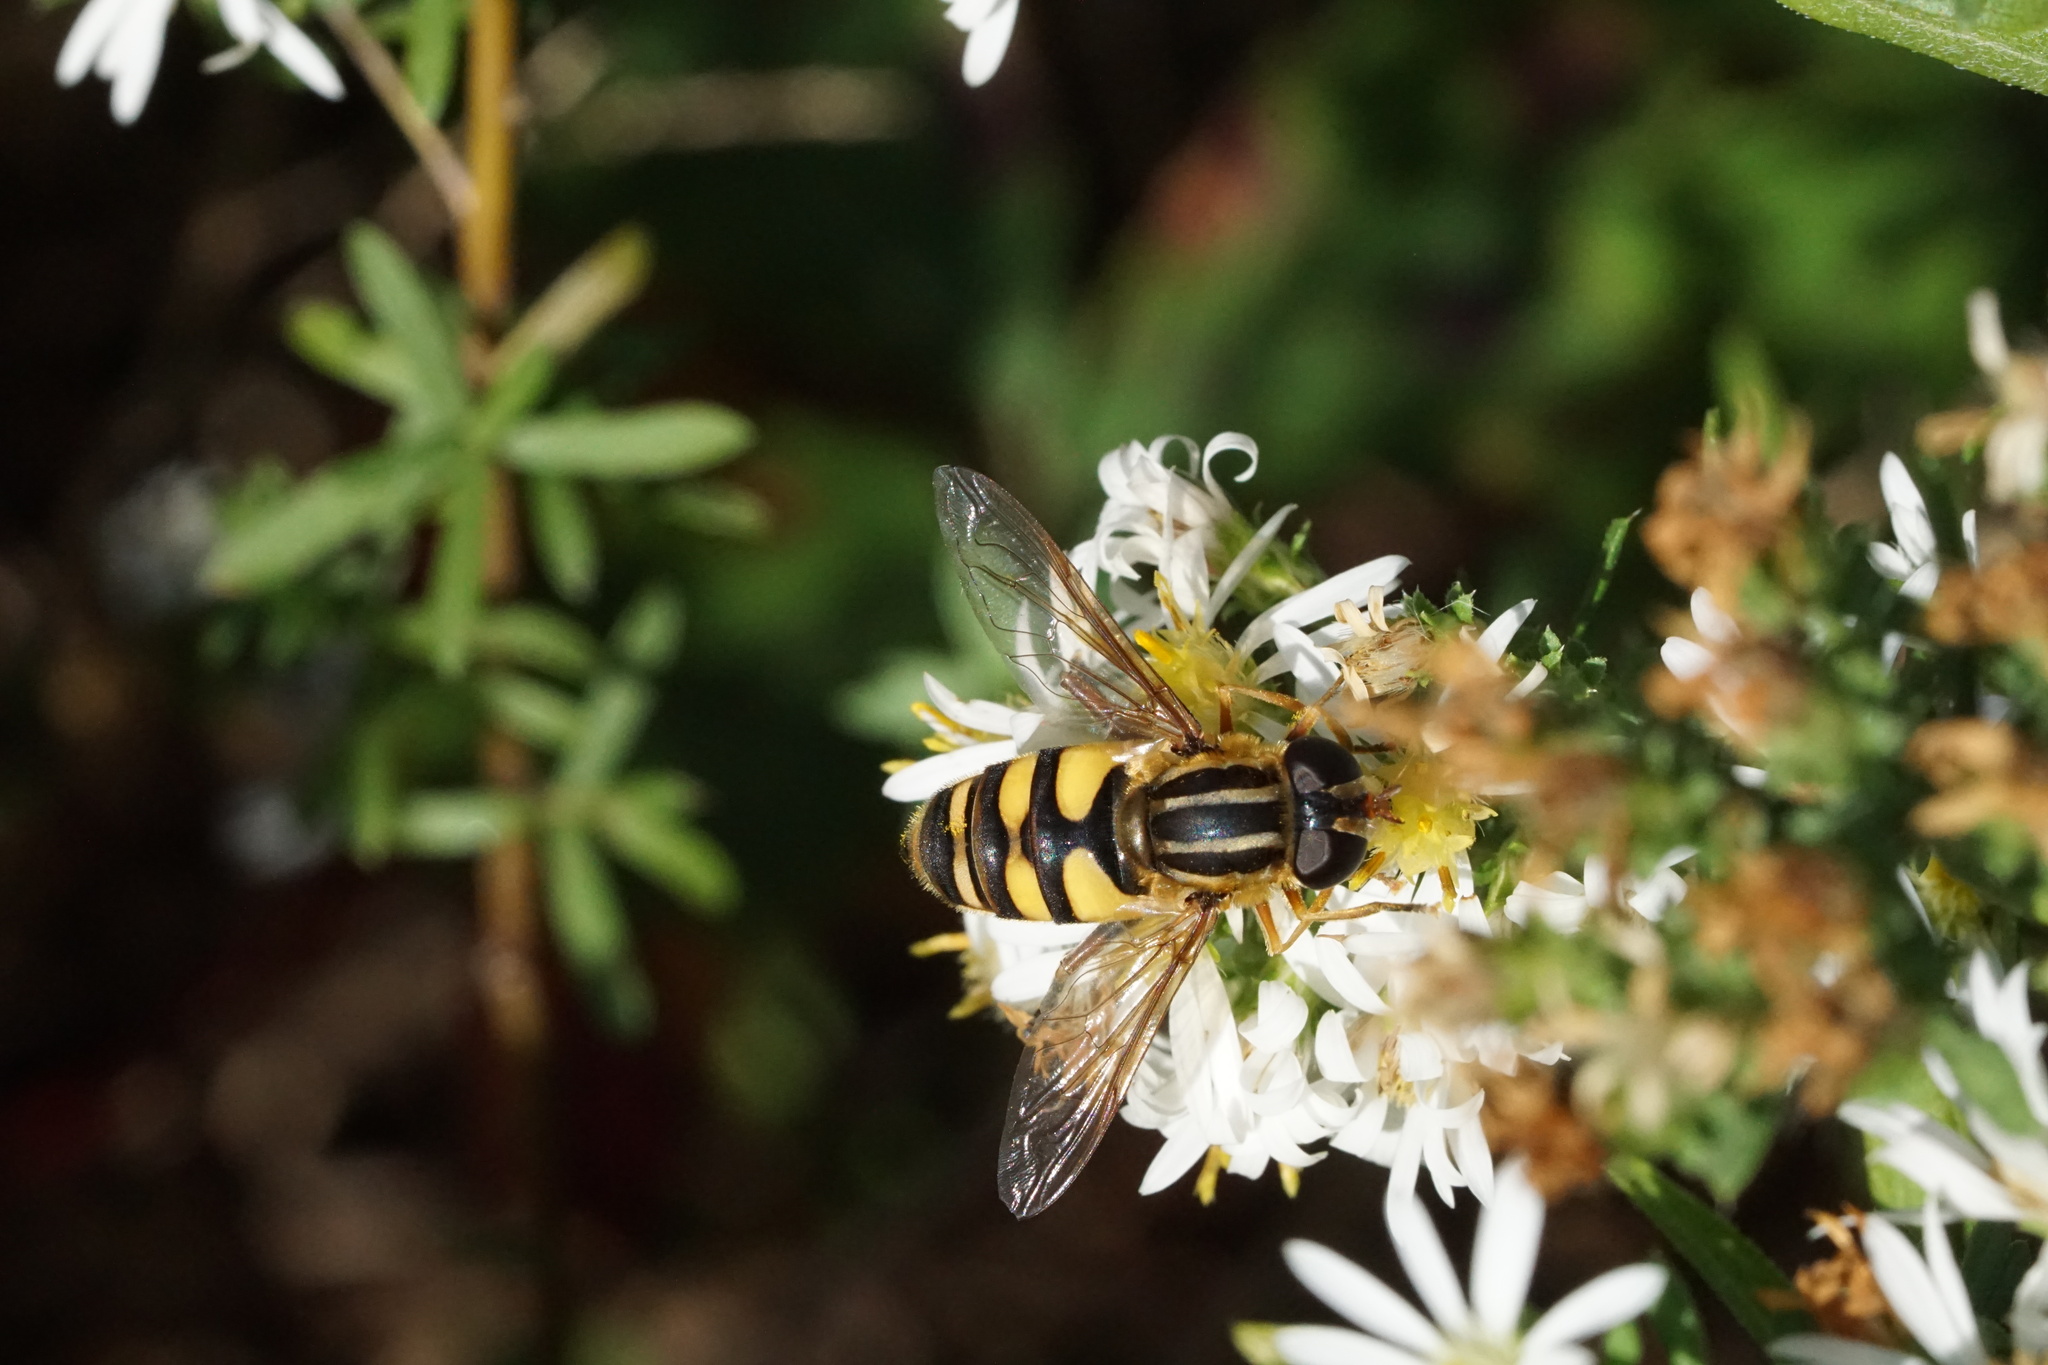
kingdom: Animalia
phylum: Arthropoda
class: Insecta
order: Diptera
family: Syrphidae
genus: Helophilus
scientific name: Helophilus fasciatus
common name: Narrow-headed marsh fly
